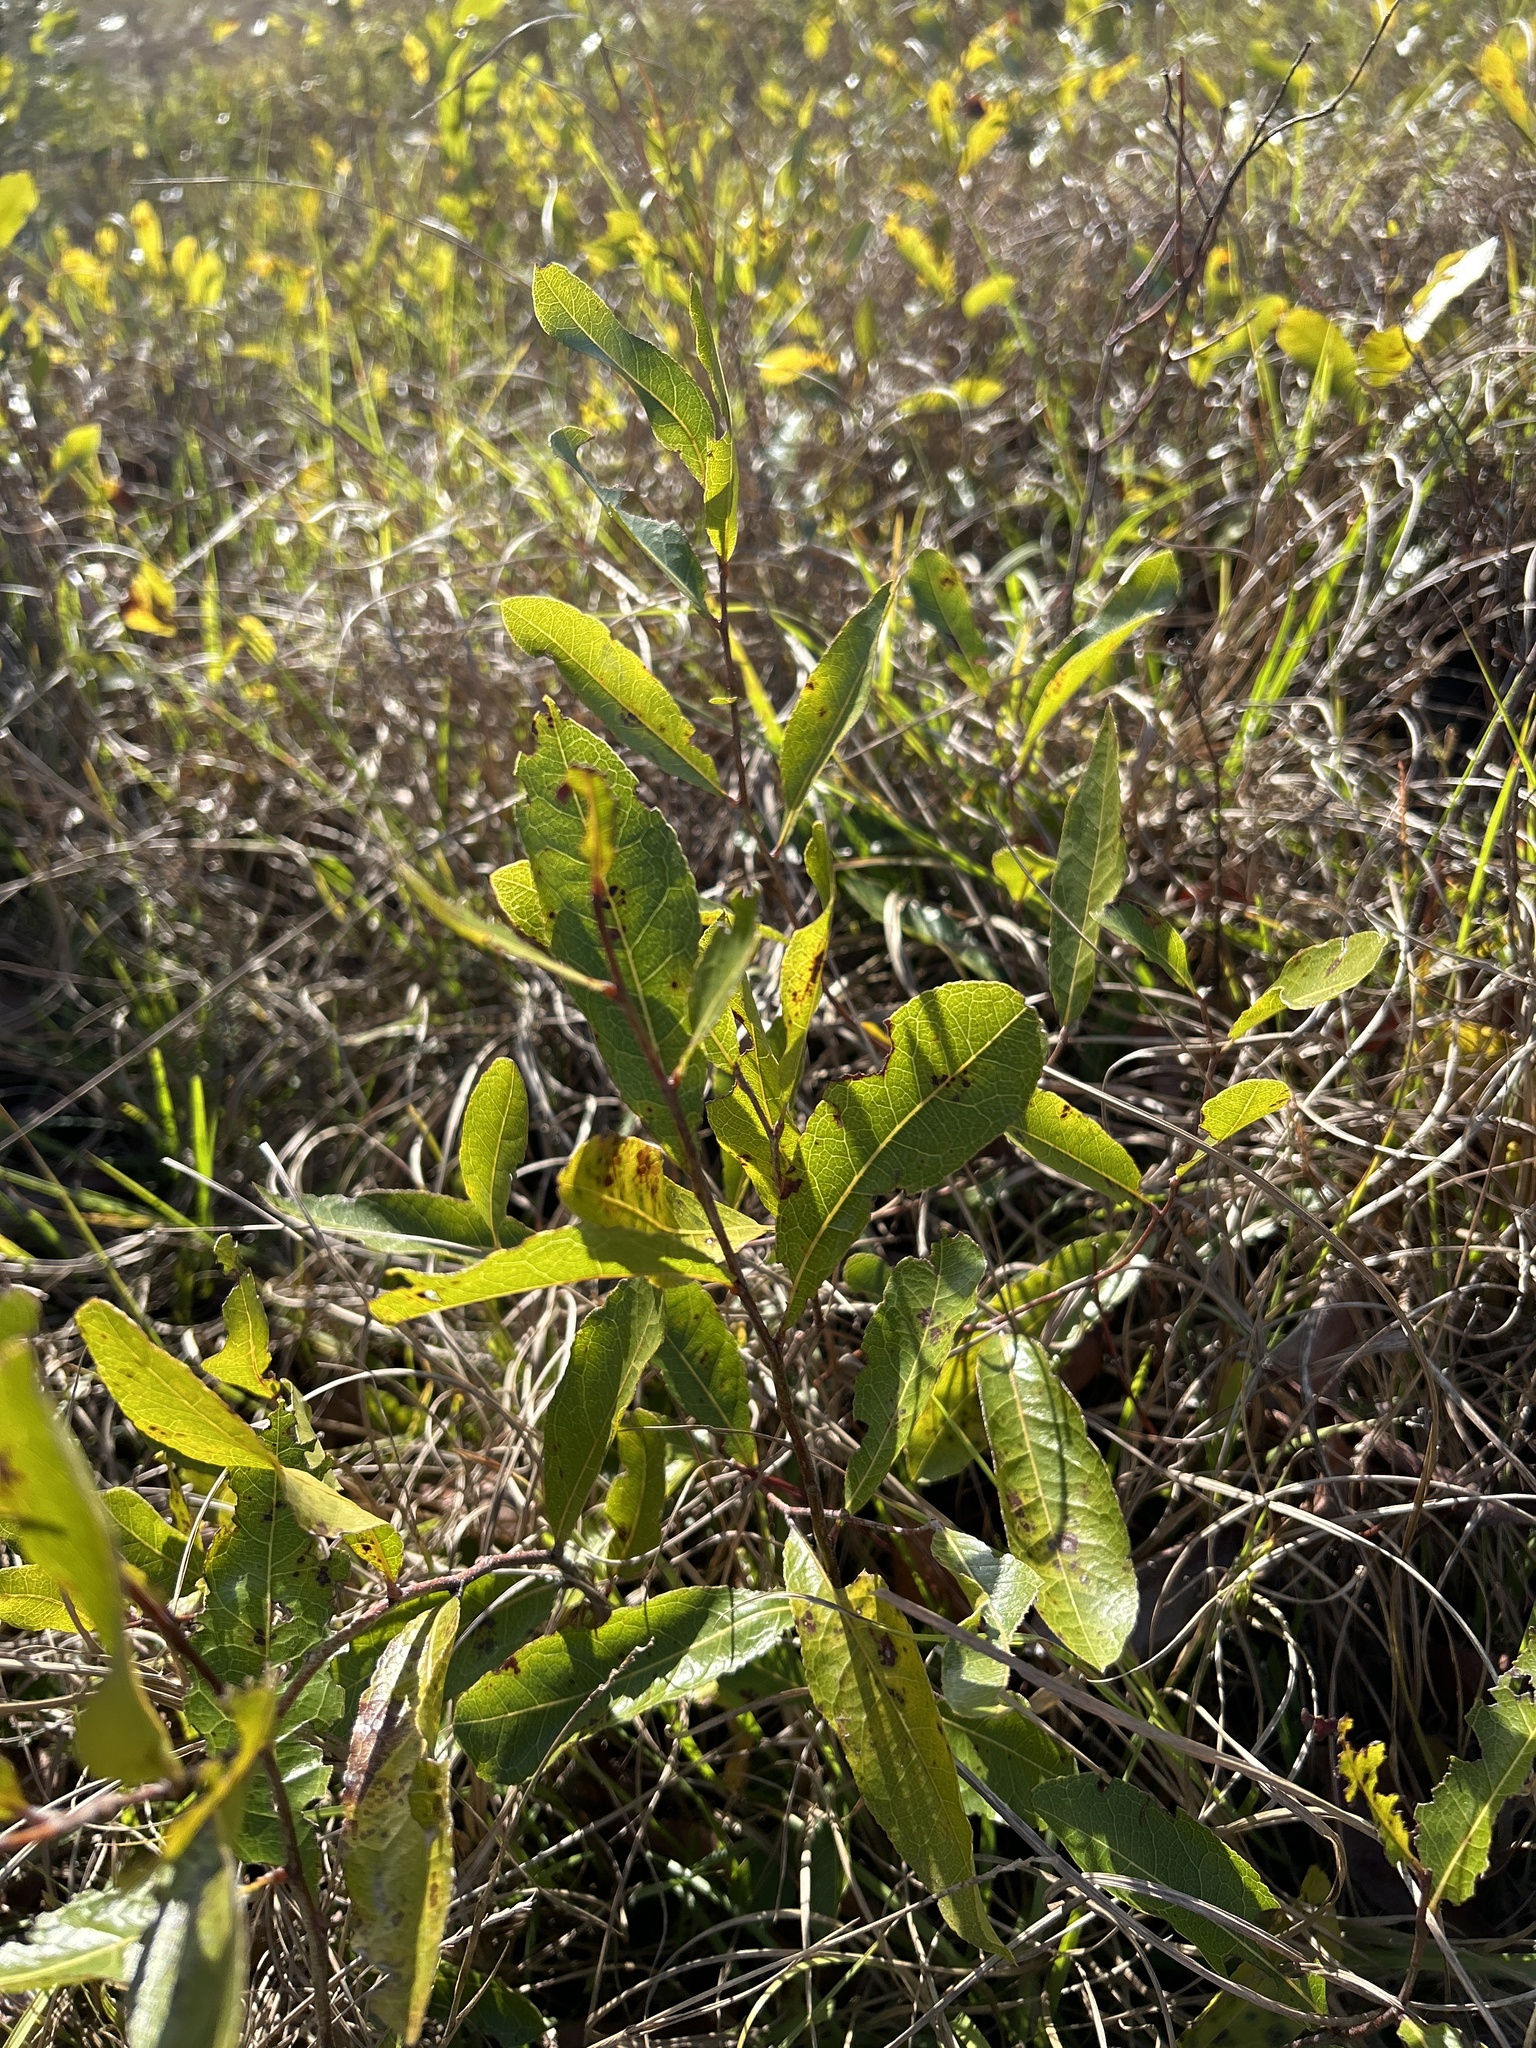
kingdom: Plantae
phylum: Tracheophyta
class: Magnoliopsida
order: Malpighiales
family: Chrysobalanaceae
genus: Geobalanus
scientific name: Geobalanus oblongifolius
